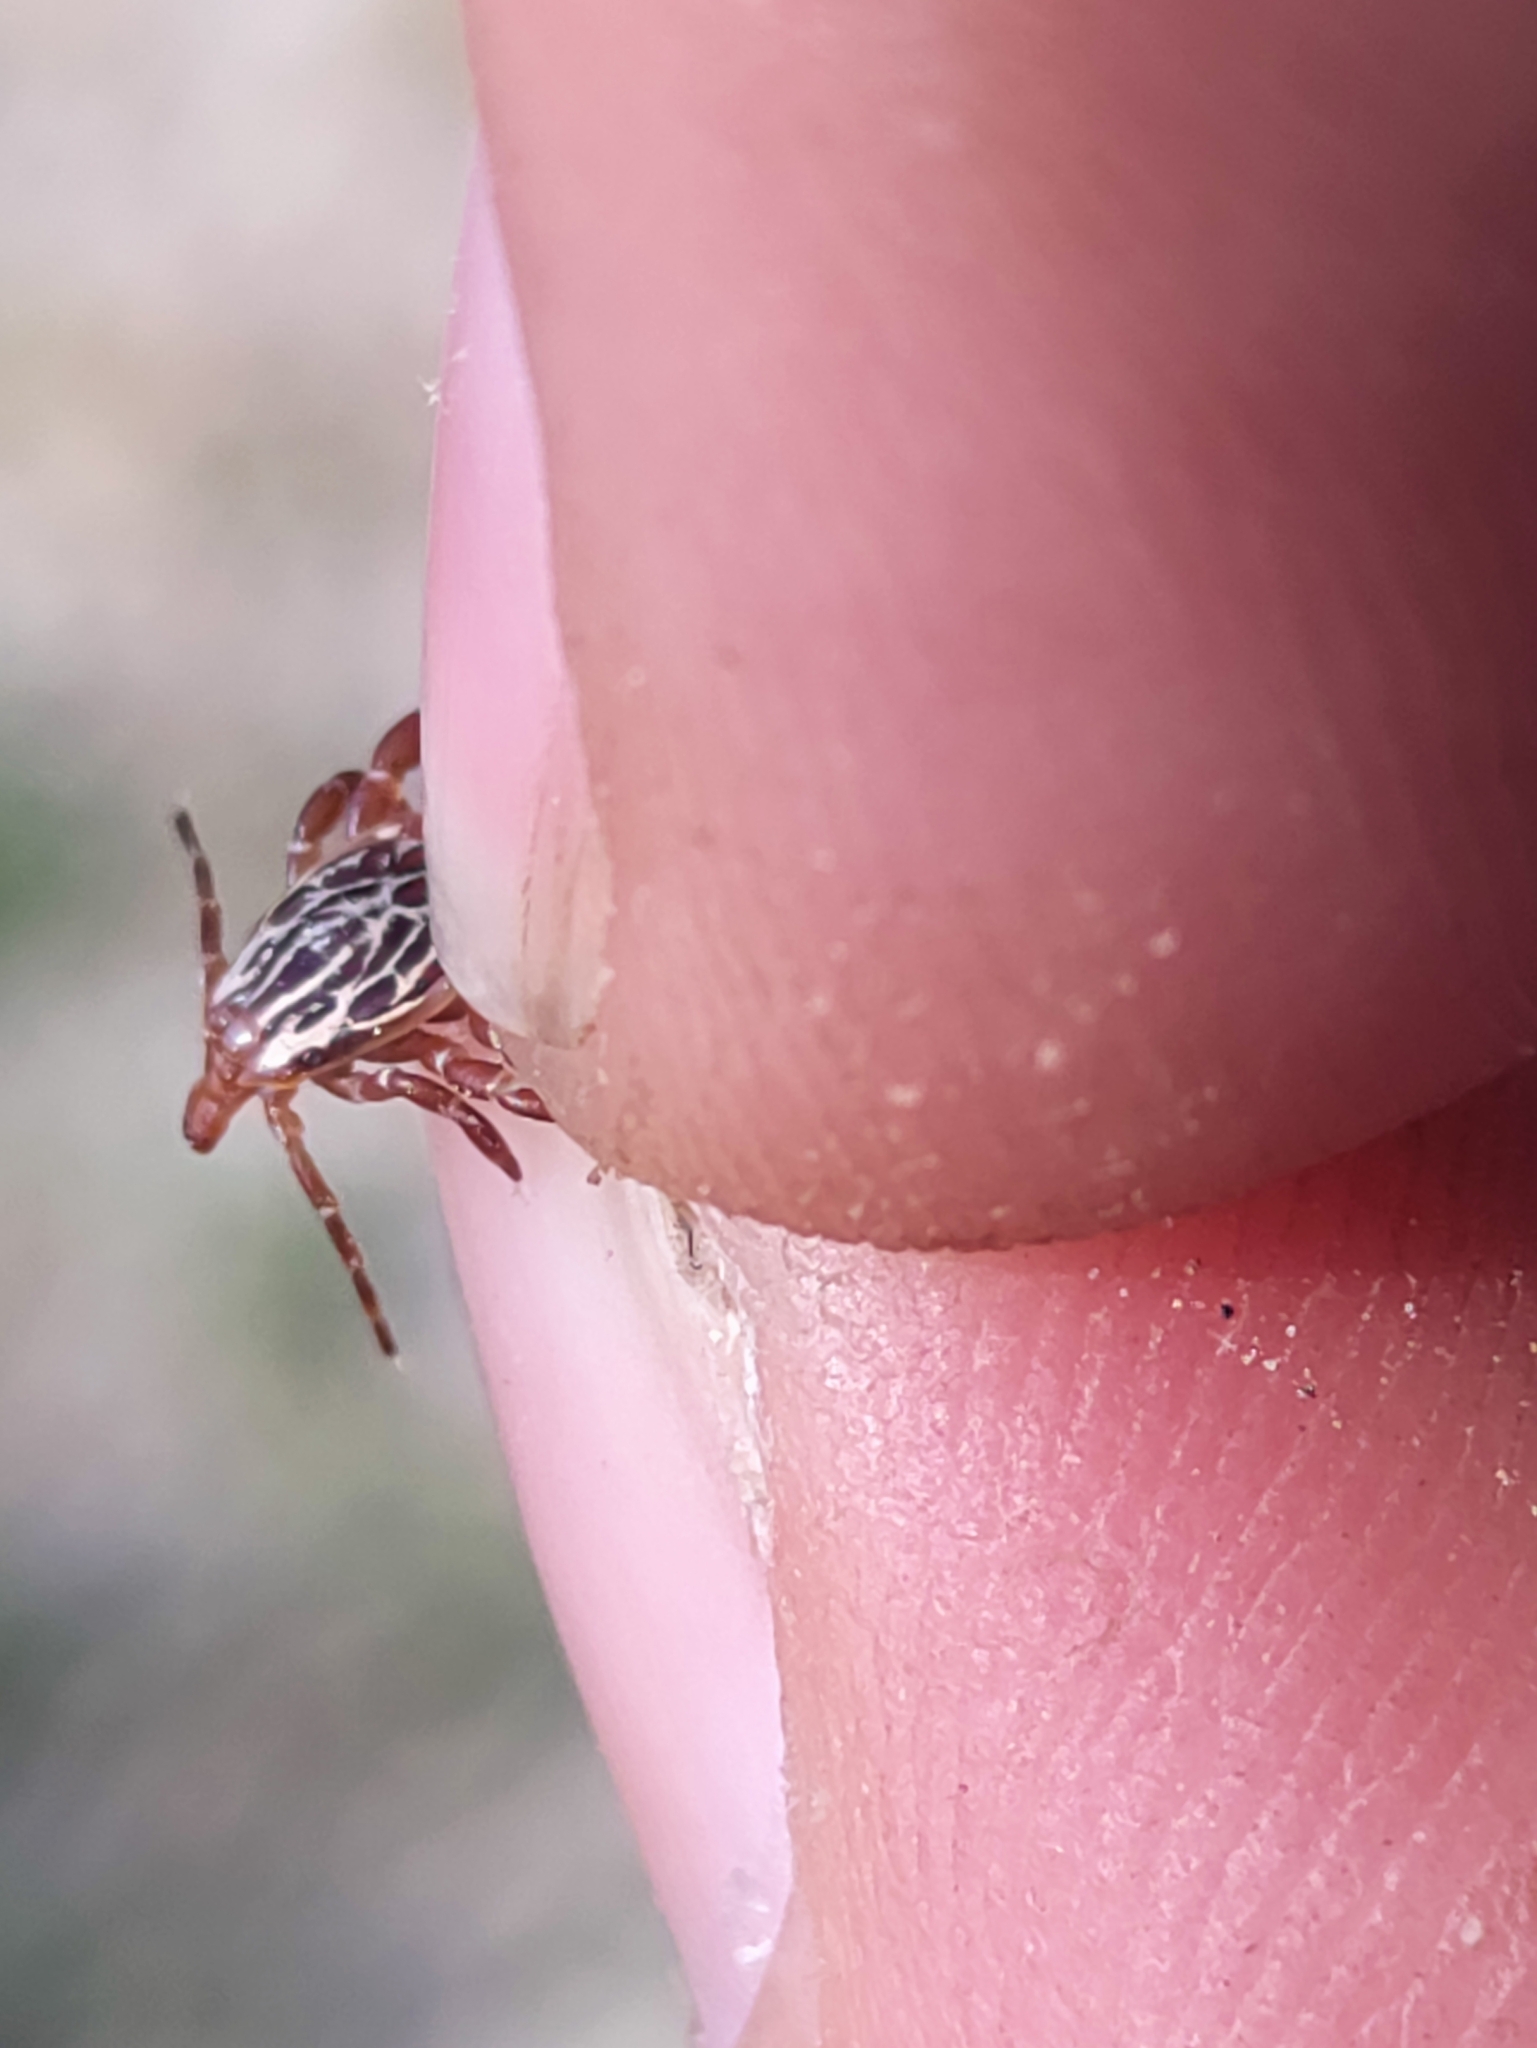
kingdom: Animalia
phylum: Arthropoda
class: Arachnida
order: Ixodida
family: Ixodidae
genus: Amblyomma
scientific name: Amblyomma maculatum
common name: Gulf coast tick
